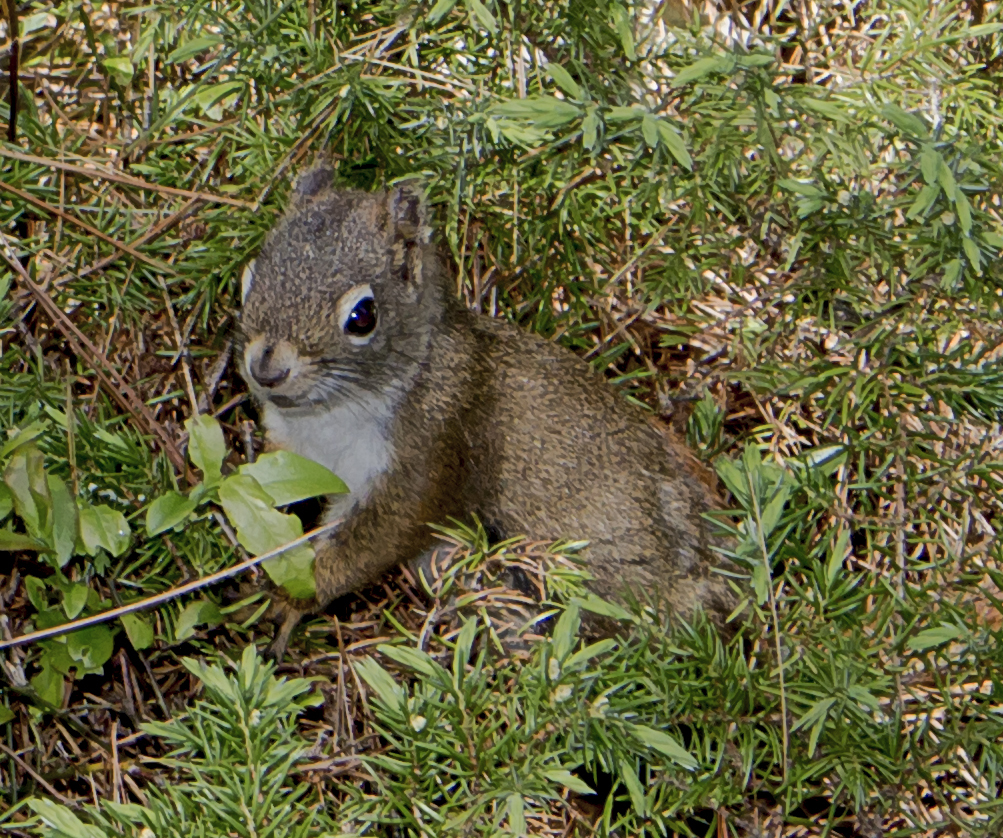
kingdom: Animalia
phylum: Chordata
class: Mammalia
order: Rodentia
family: Sciuridae
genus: Tamiasciurus
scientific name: Tamiasciurus hudsonicus
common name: Red squirrel
